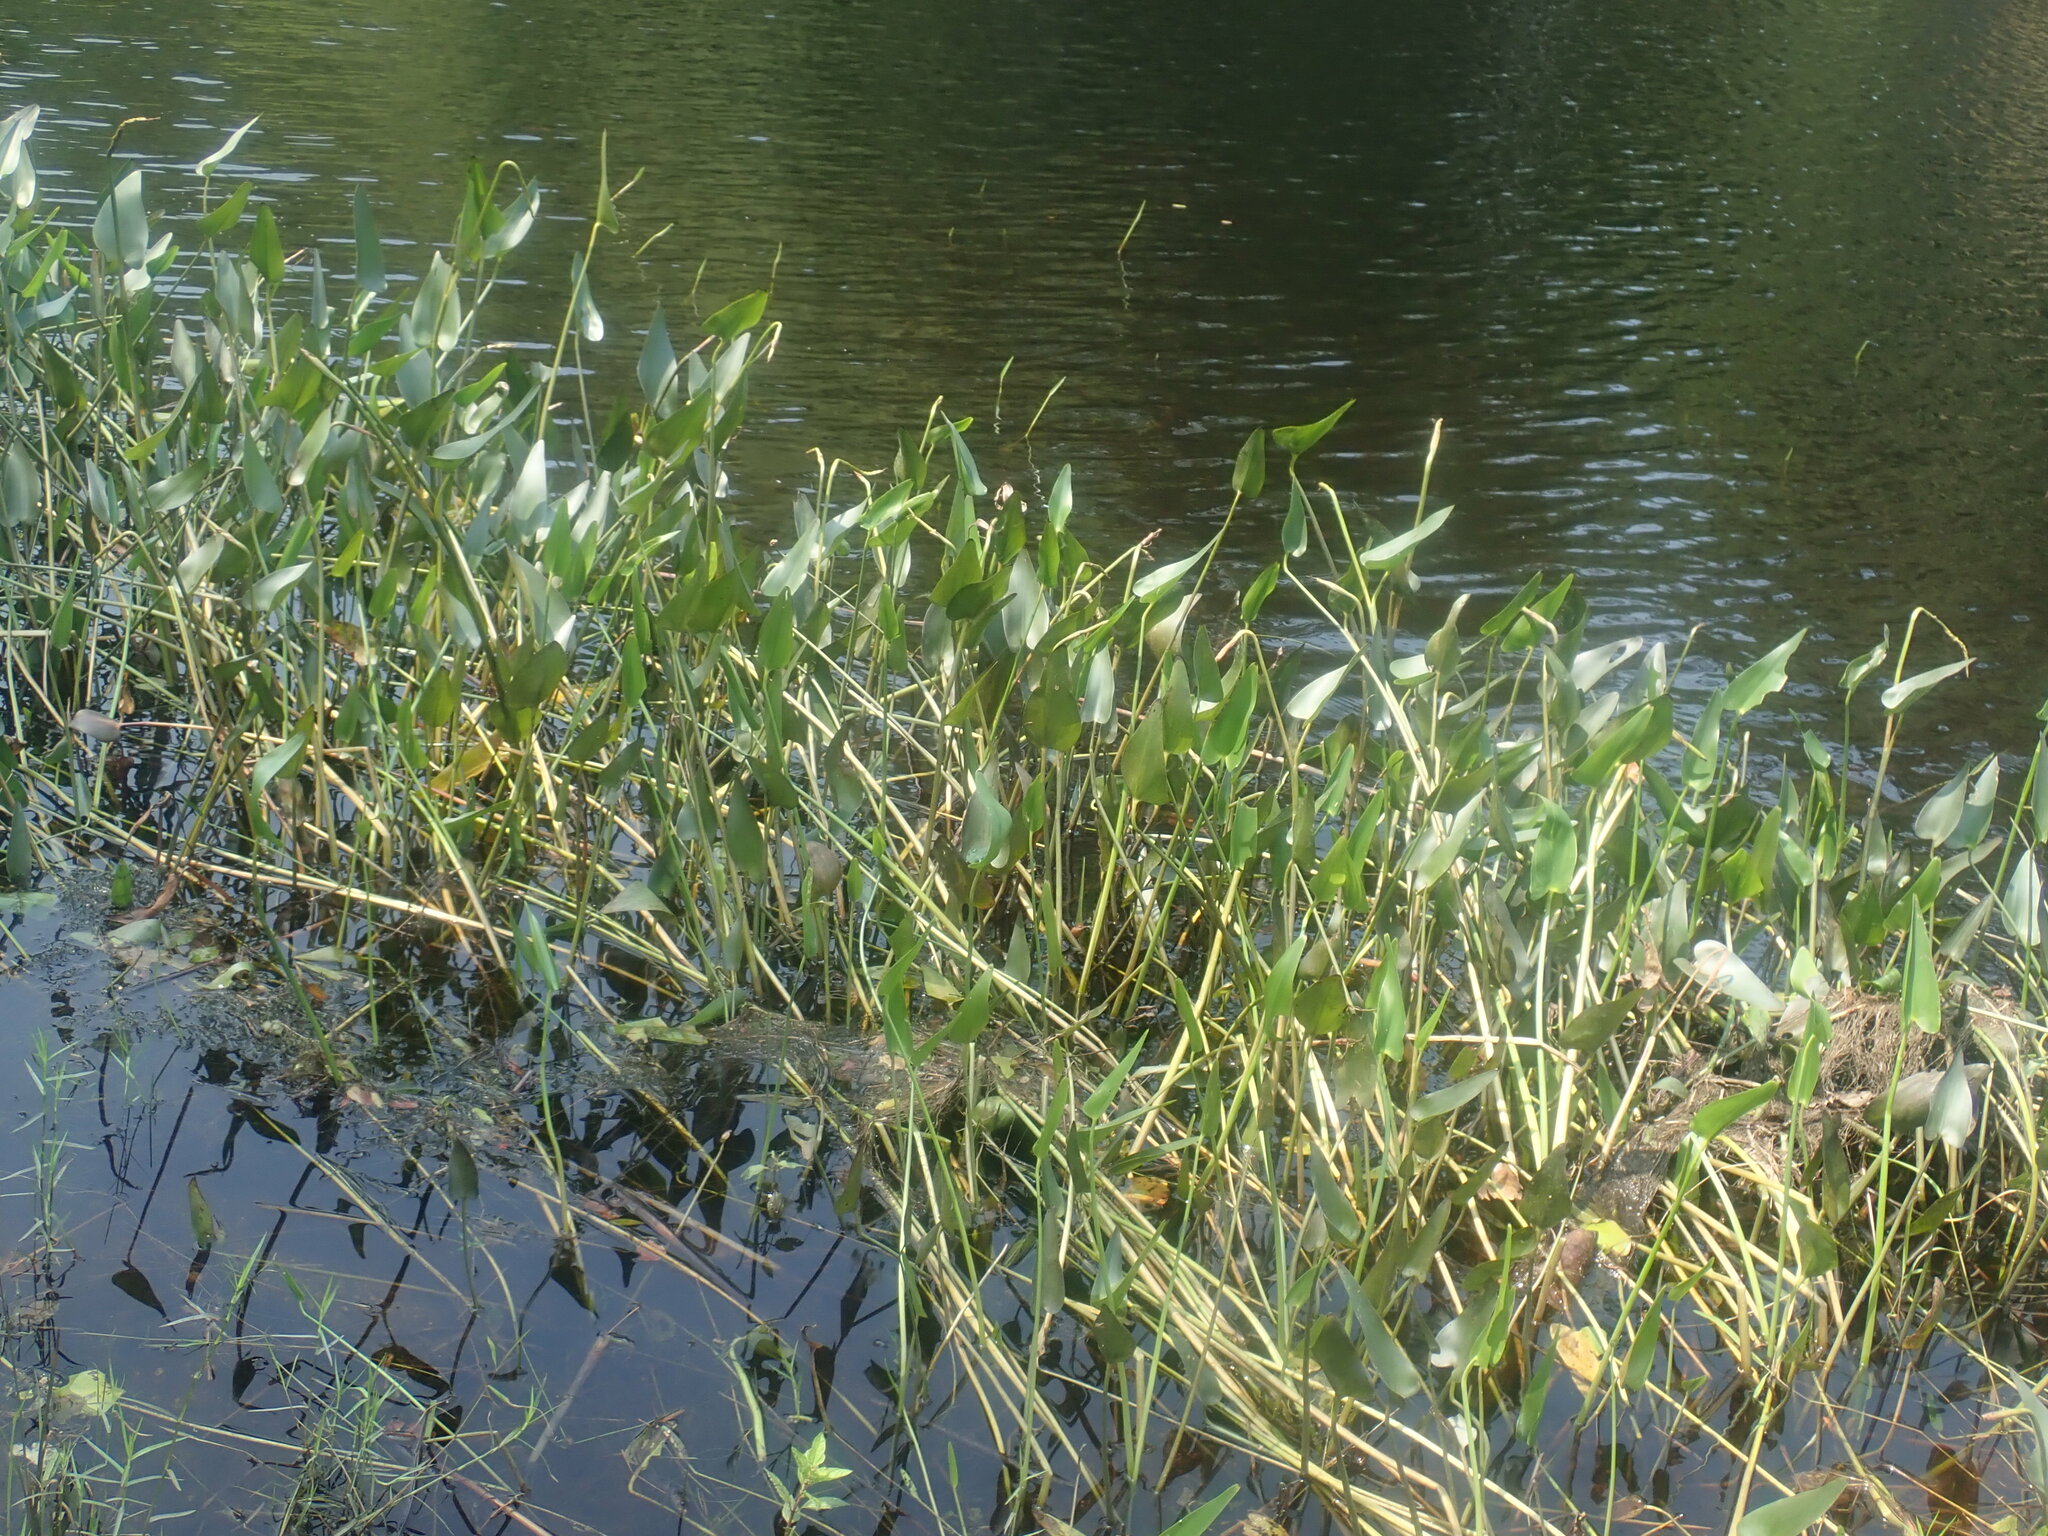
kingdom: Plantae
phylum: Tracheophyta
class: Liliopsida
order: Commelinales
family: Pontederiaceae
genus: Pontederia
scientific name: Pontederia cordata
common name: Pickerelweed
